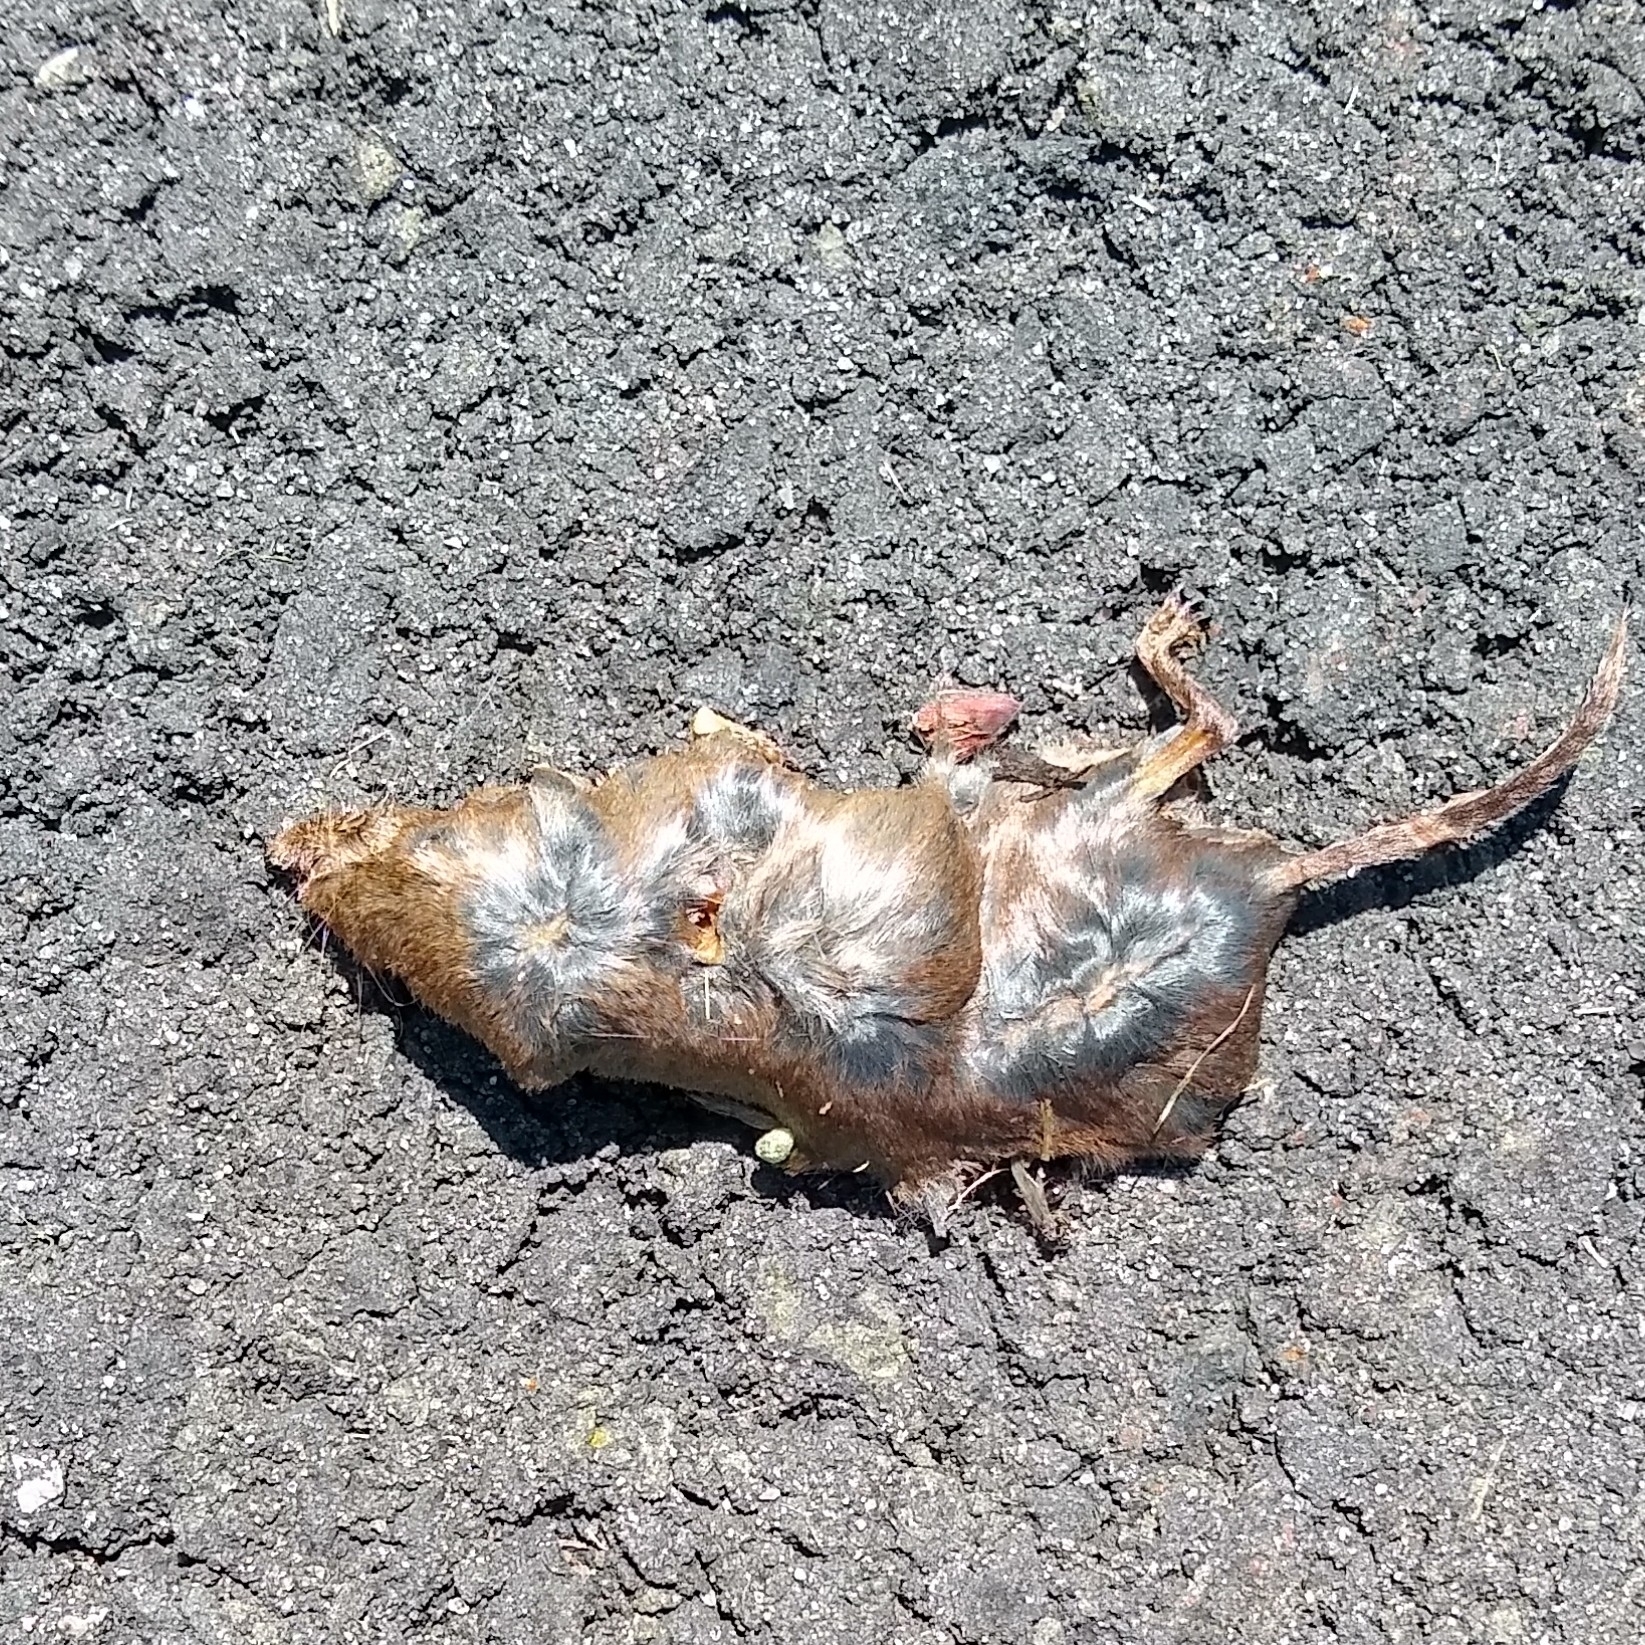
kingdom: Animalia
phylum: Chordata
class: Mammalia
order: Soricomorpha
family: Soricidae
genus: Sorex
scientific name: Sorex cinereus
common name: Cinereus shrew
